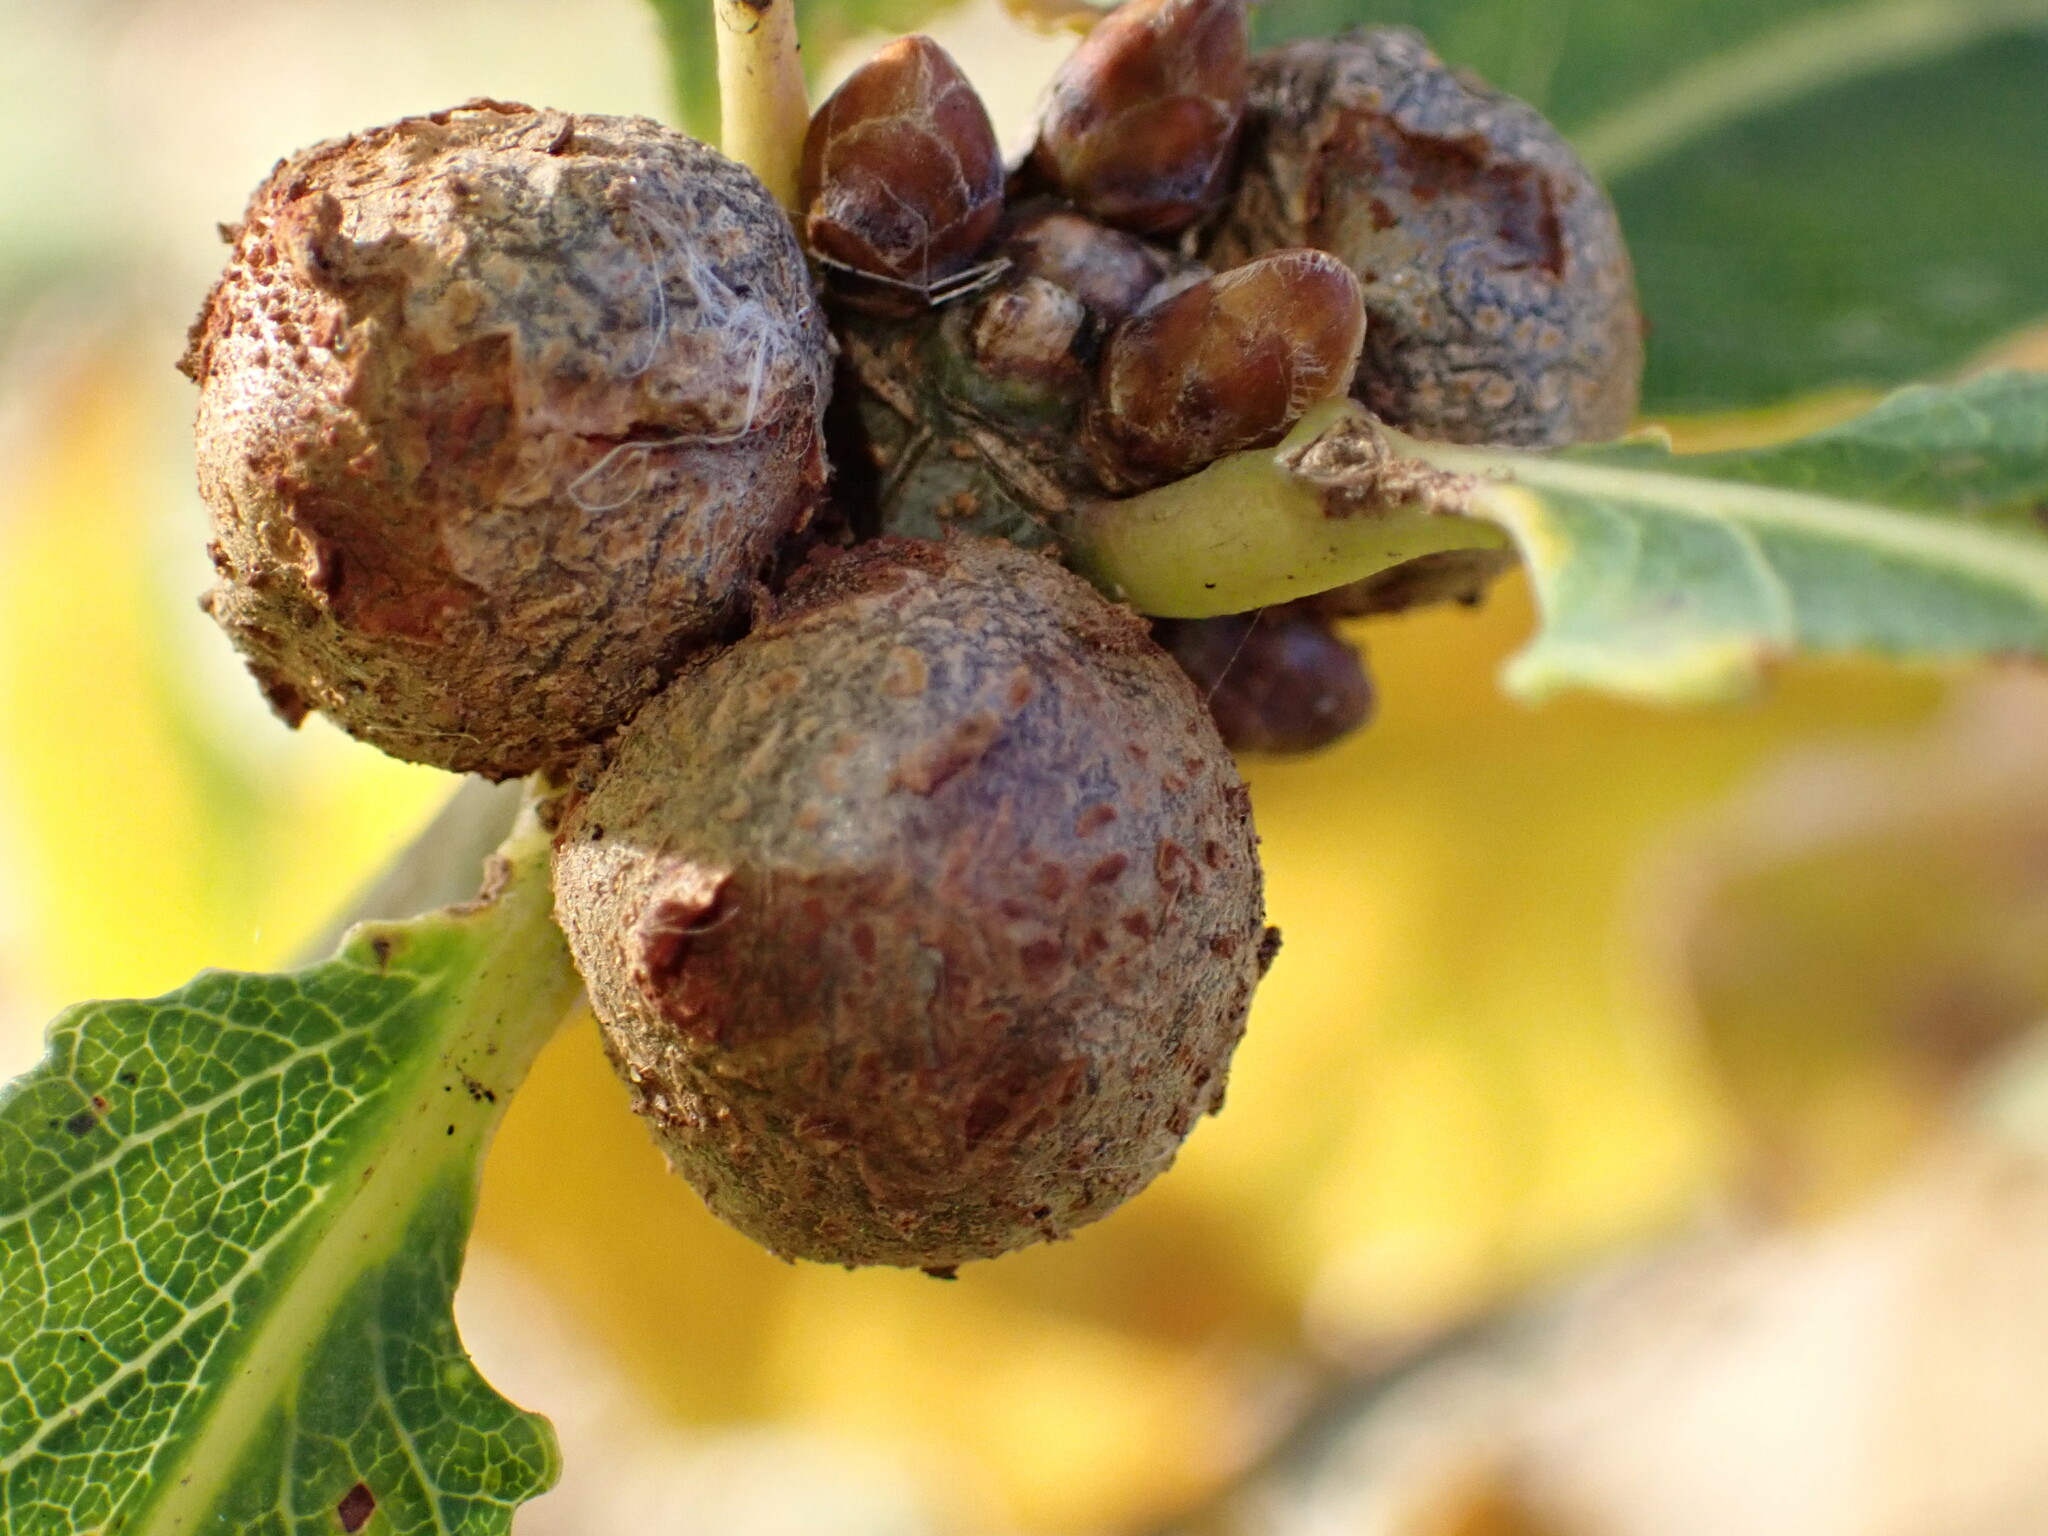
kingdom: Animalia
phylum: Arthropoda
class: Insecta
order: Hymenoptera
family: Cynipidae
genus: Andricus
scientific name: Andricus lignicolus
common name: Cola-nut gall
